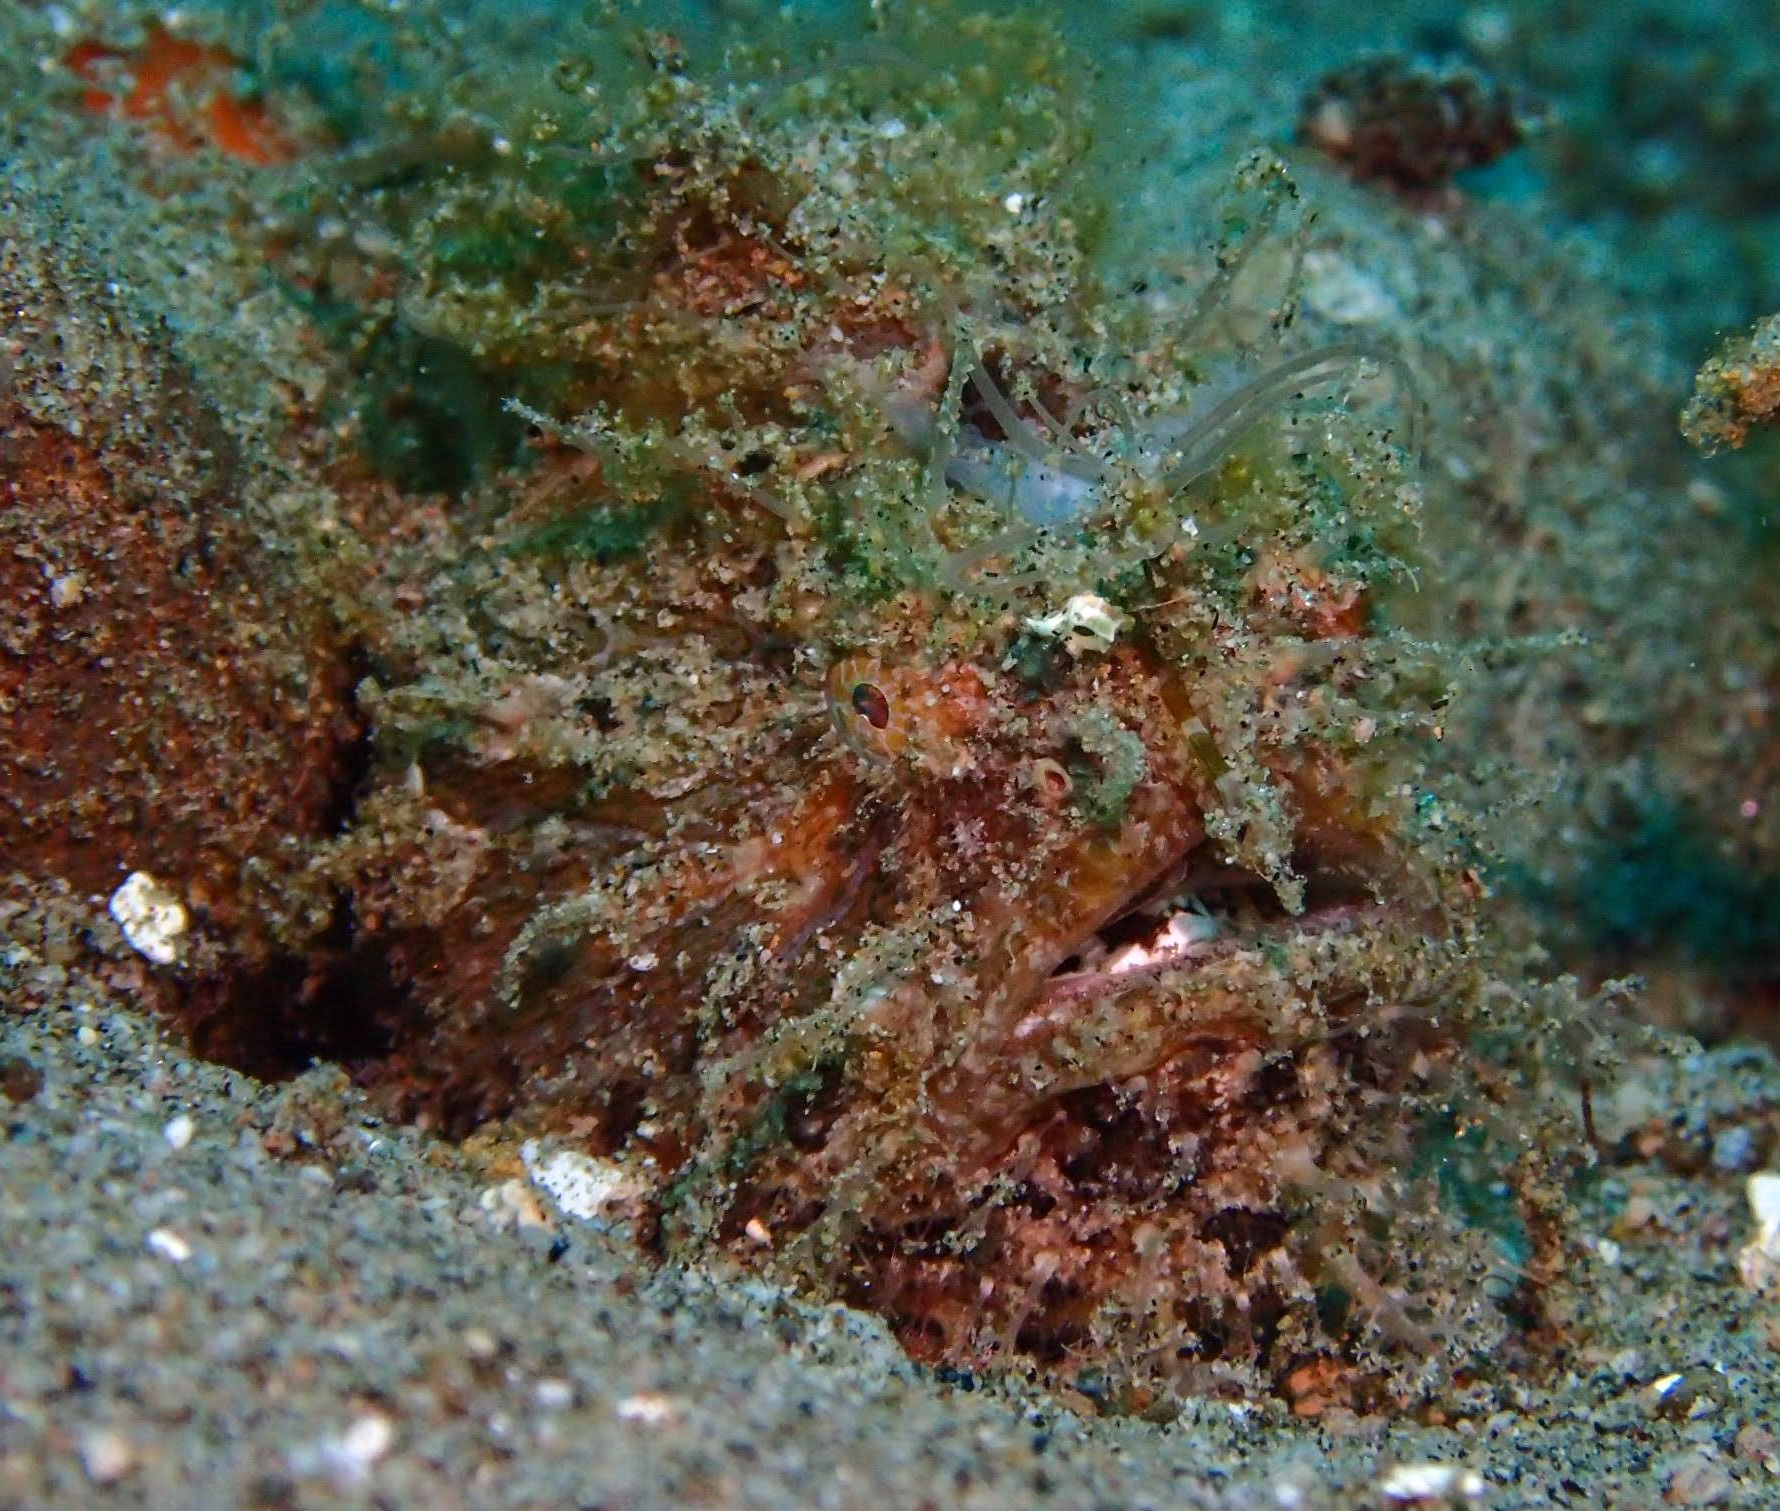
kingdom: Animalia
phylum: Chordata
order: Lophiiformes
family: Antennariidae
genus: Antennarius
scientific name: Antennarius striatus
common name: Striated frogfish
